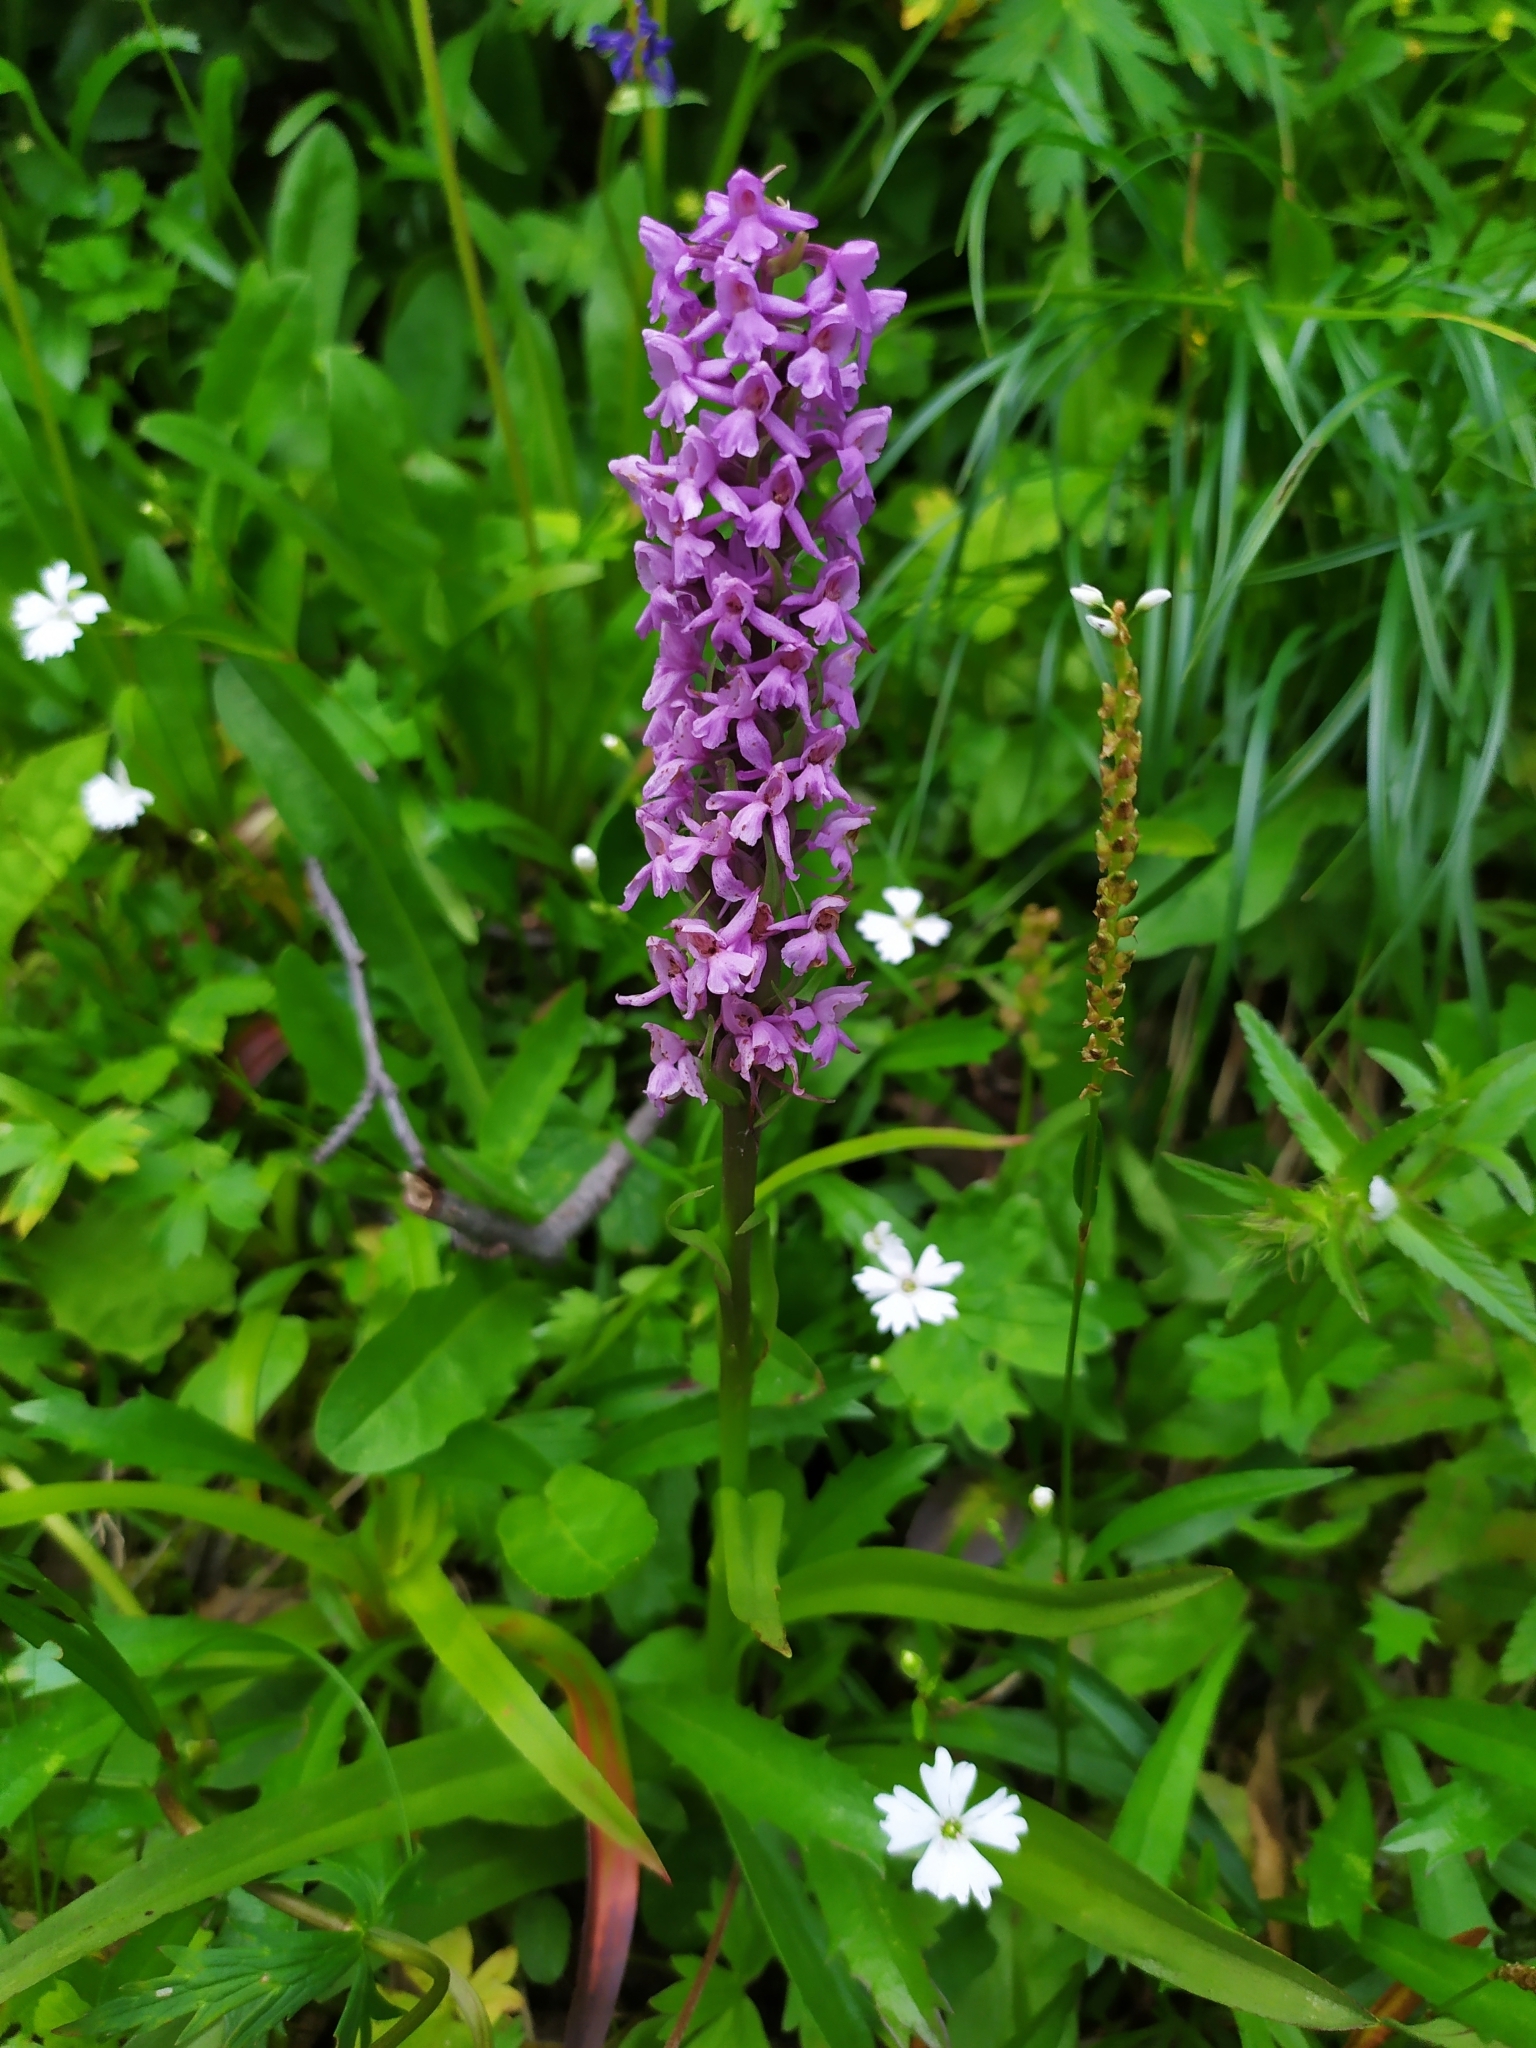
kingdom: Plantae
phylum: Tracheophyta
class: Liliopsida
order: Asparagales
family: Orchidaceae
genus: Gymnadenia
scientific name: Gymnadenia conopsea
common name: Fragrant orchid
